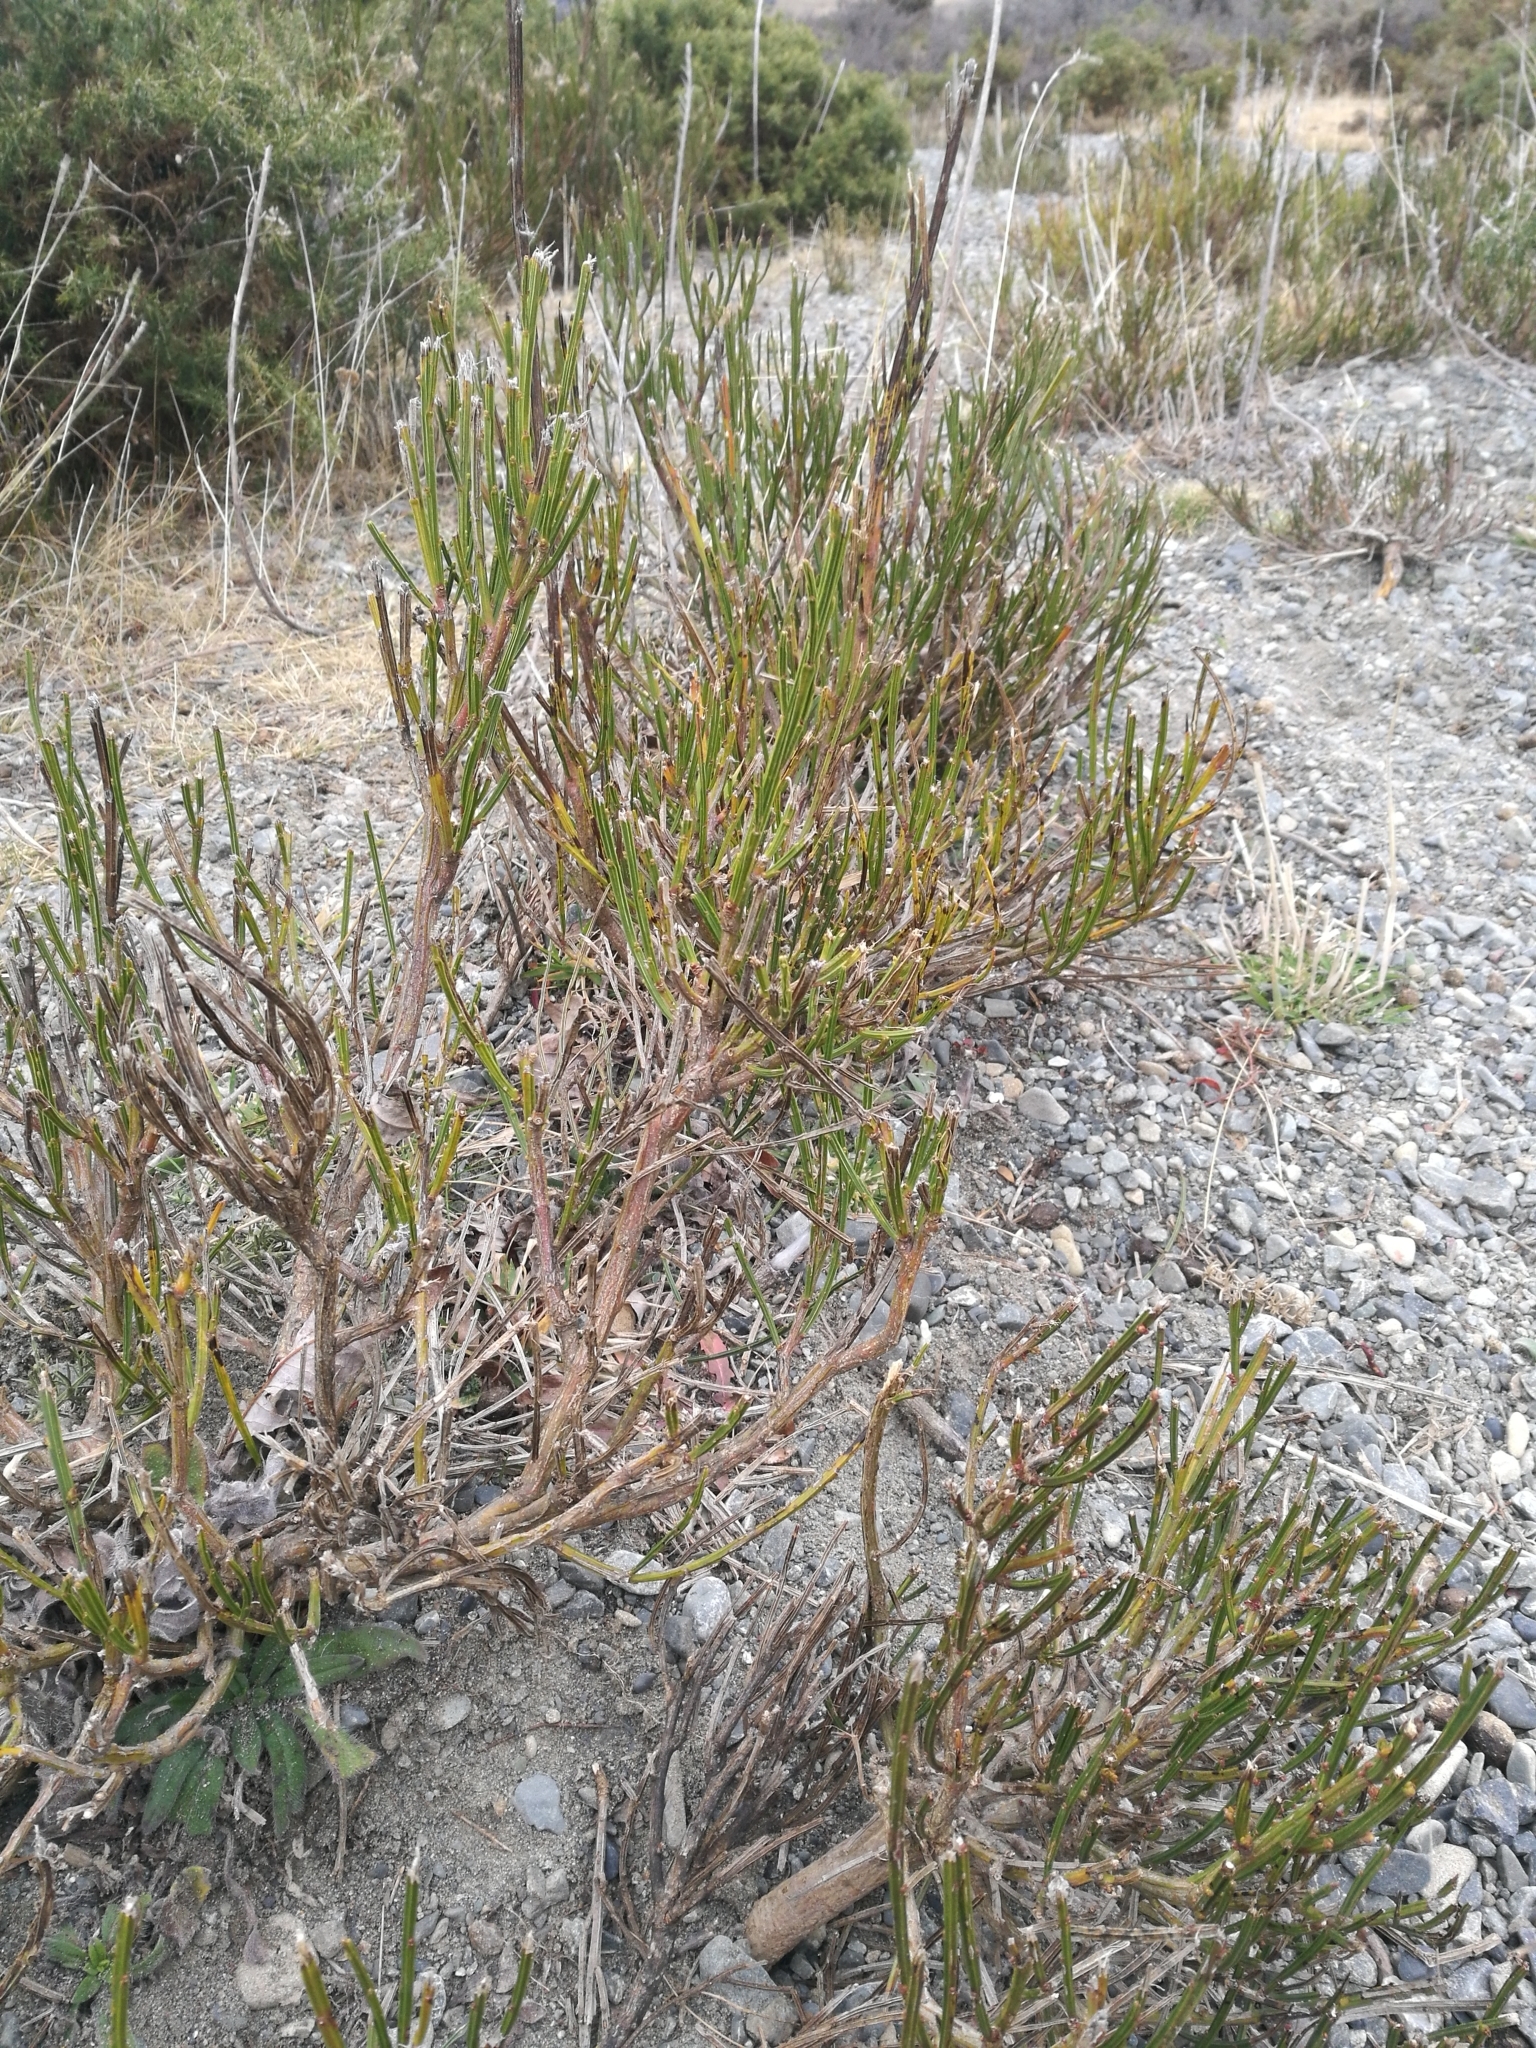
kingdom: Plantae
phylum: Tracheophyta
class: Magnoliopsida
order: Fabales
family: Fabaceae
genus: Cytisus
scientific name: Cytisus scoparius
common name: Scotch broom
